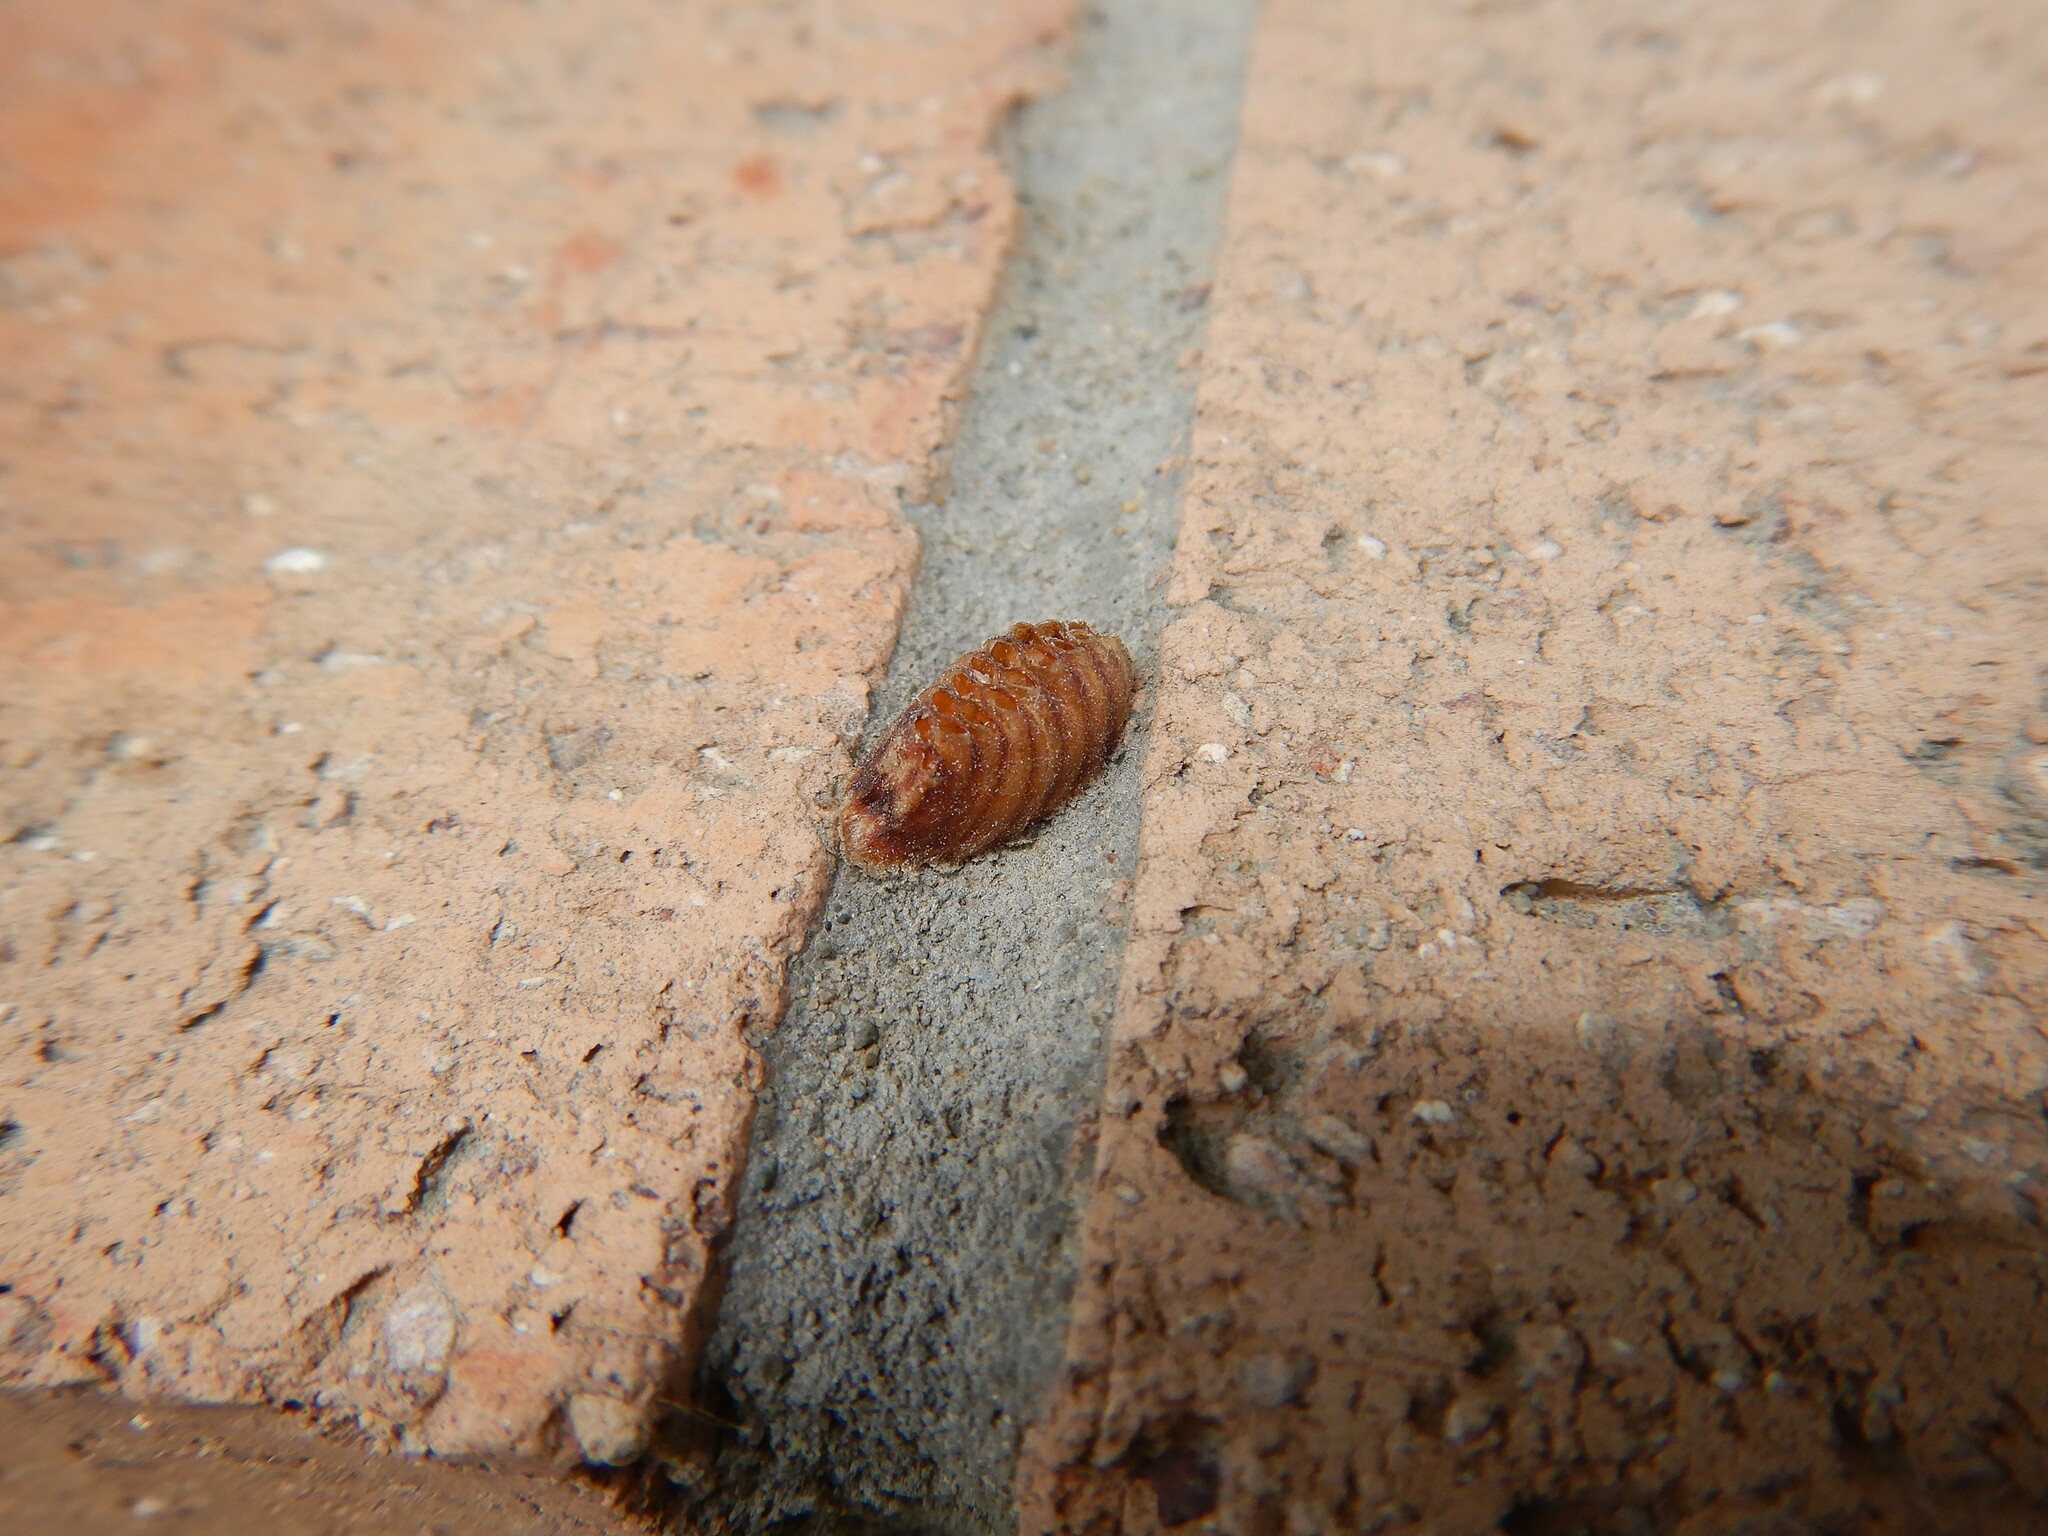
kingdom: Animalia
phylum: Arthropoda
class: Insecta
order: Mantodea
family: Mantidae
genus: Orthodera
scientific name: Orthodera novaezealandiae
